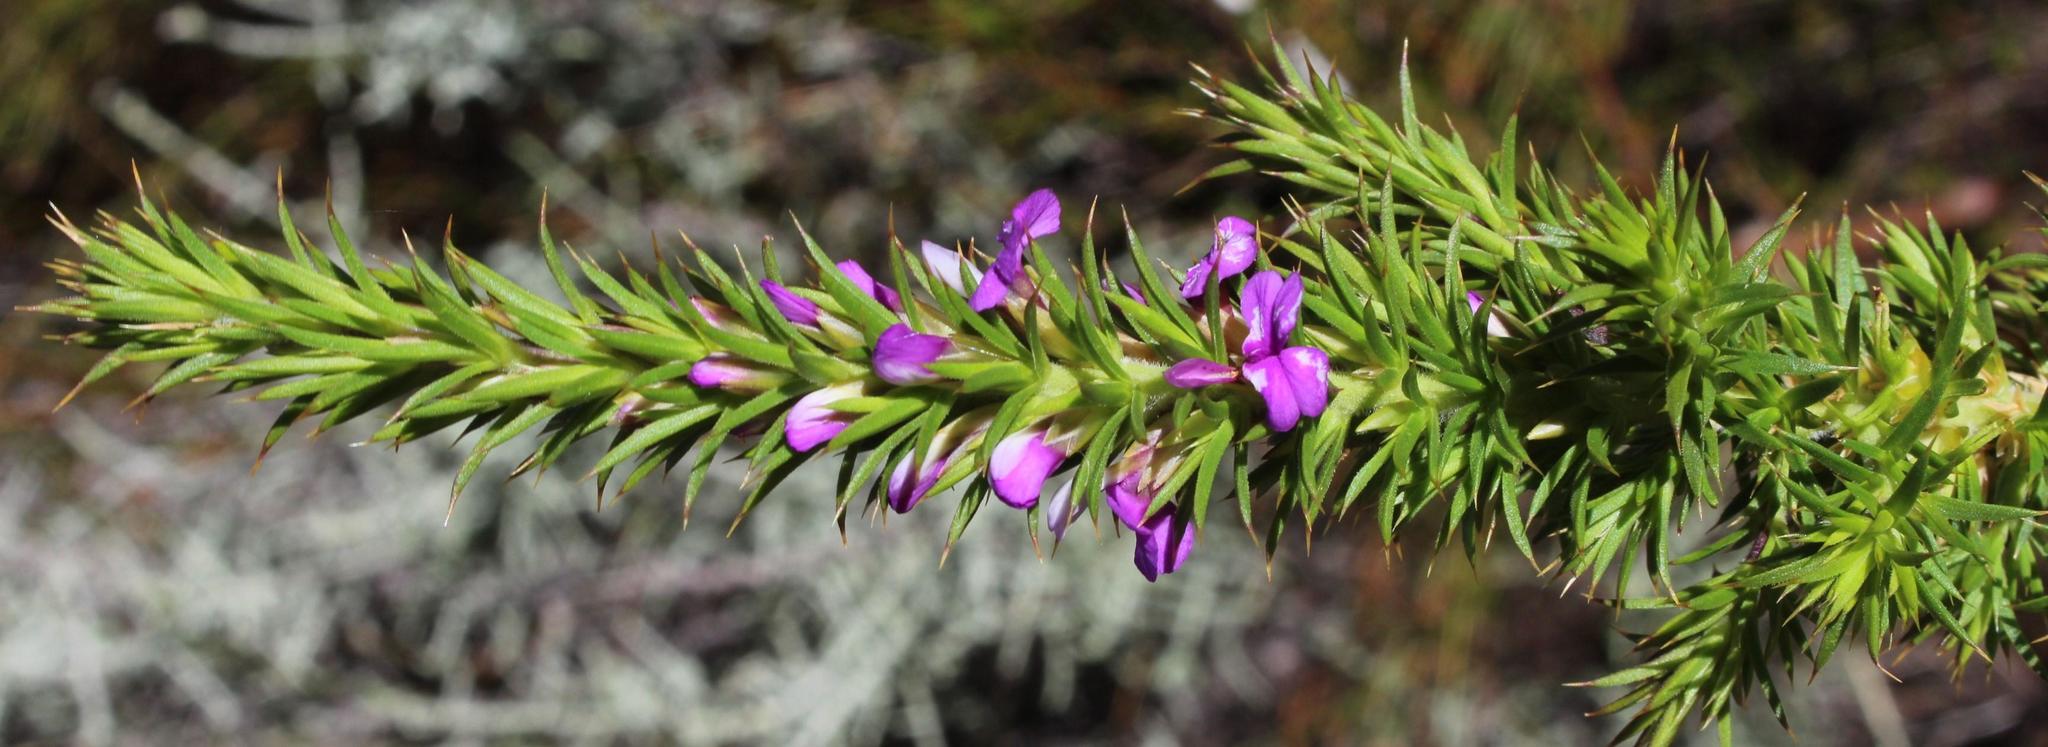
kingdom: Plantae
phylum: Tracheophyta
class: Magnoliopsida
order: Fabales
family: Polygalaceae
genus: Muraltia
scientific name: Muraltia heisteria
